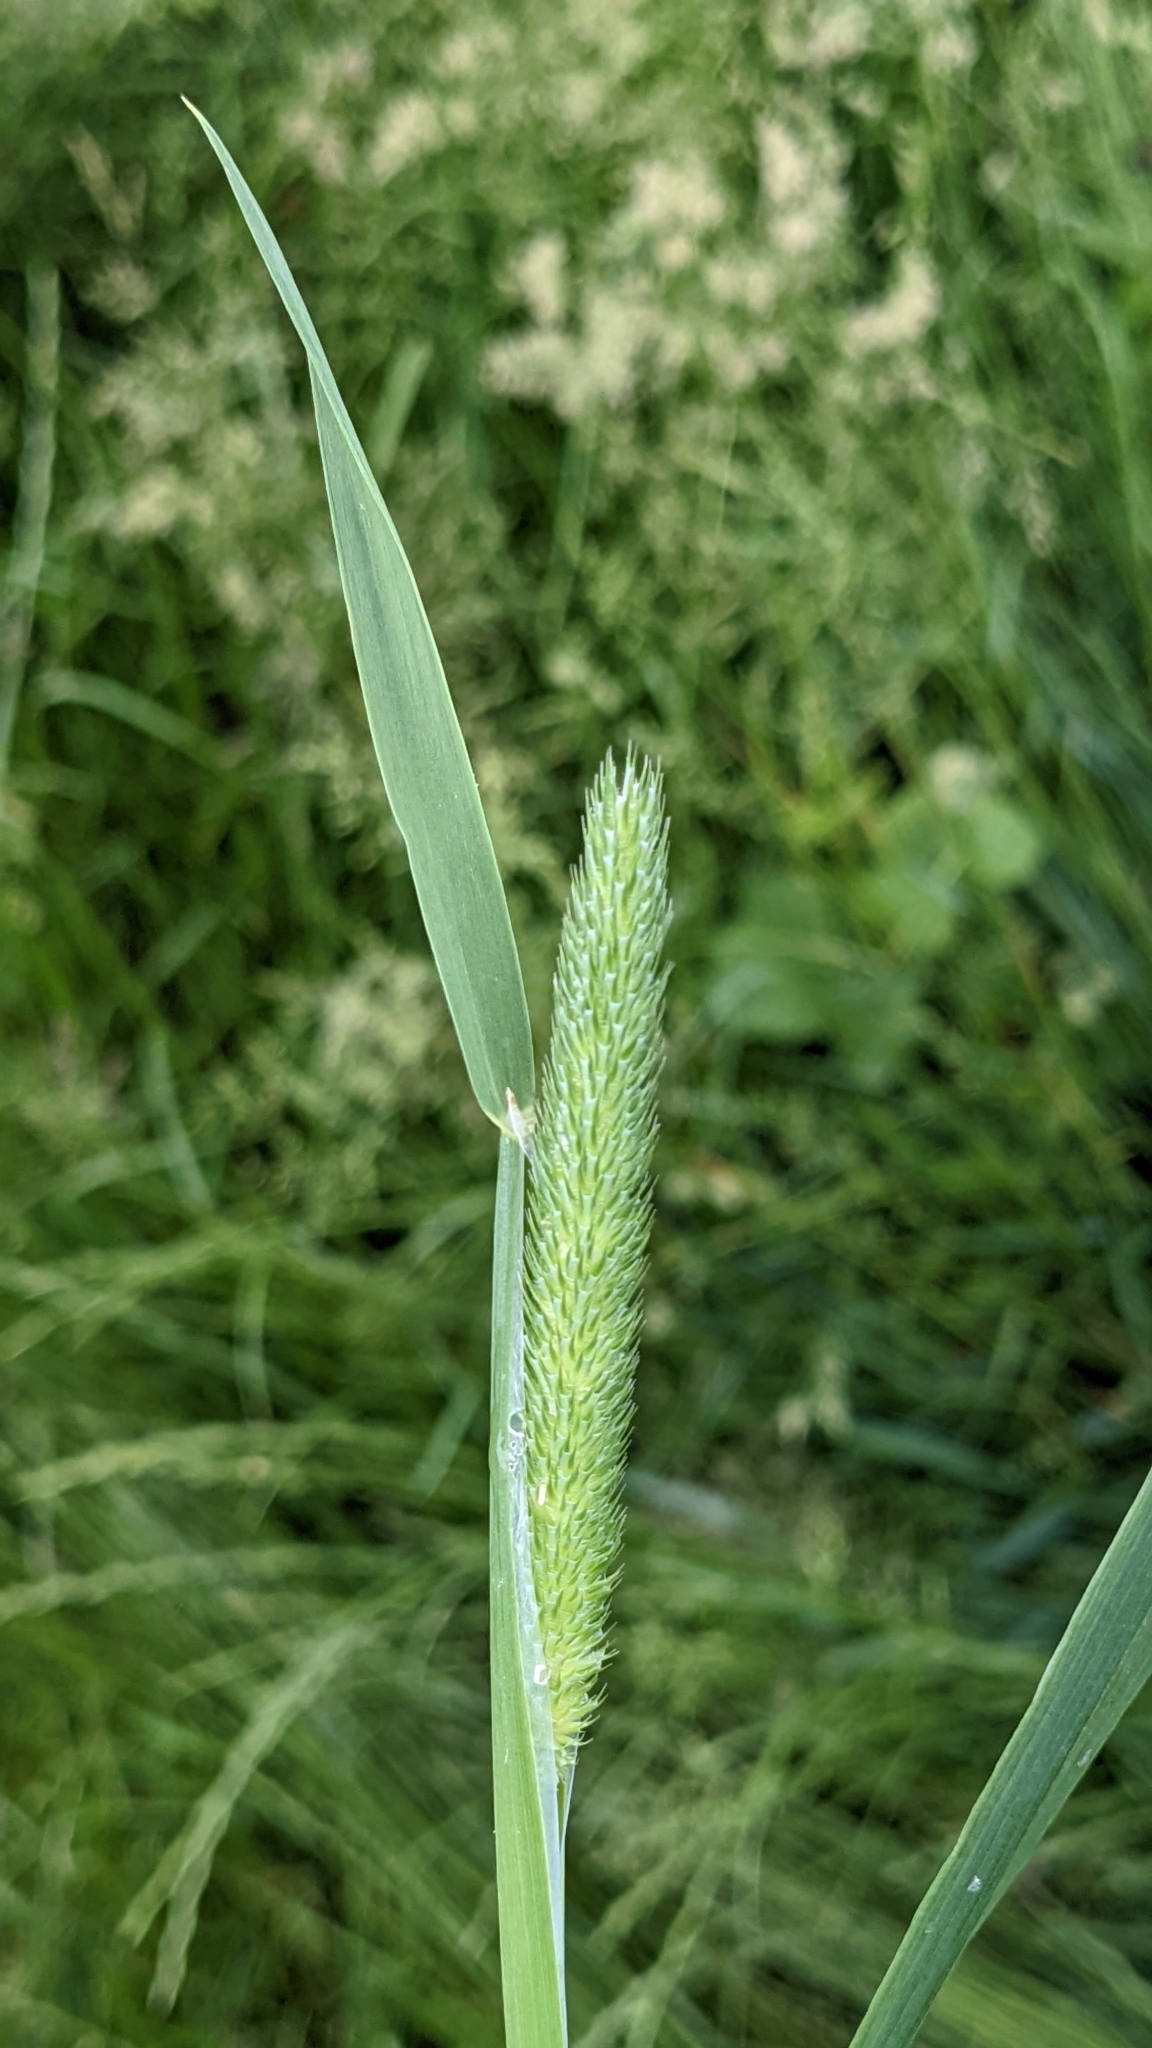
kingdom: Plantae
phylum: Tracheophyta
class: Liliopsida
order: Poales
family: Poaceae
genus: Phleum
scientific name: Phleum pratense
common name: Timothy grass
